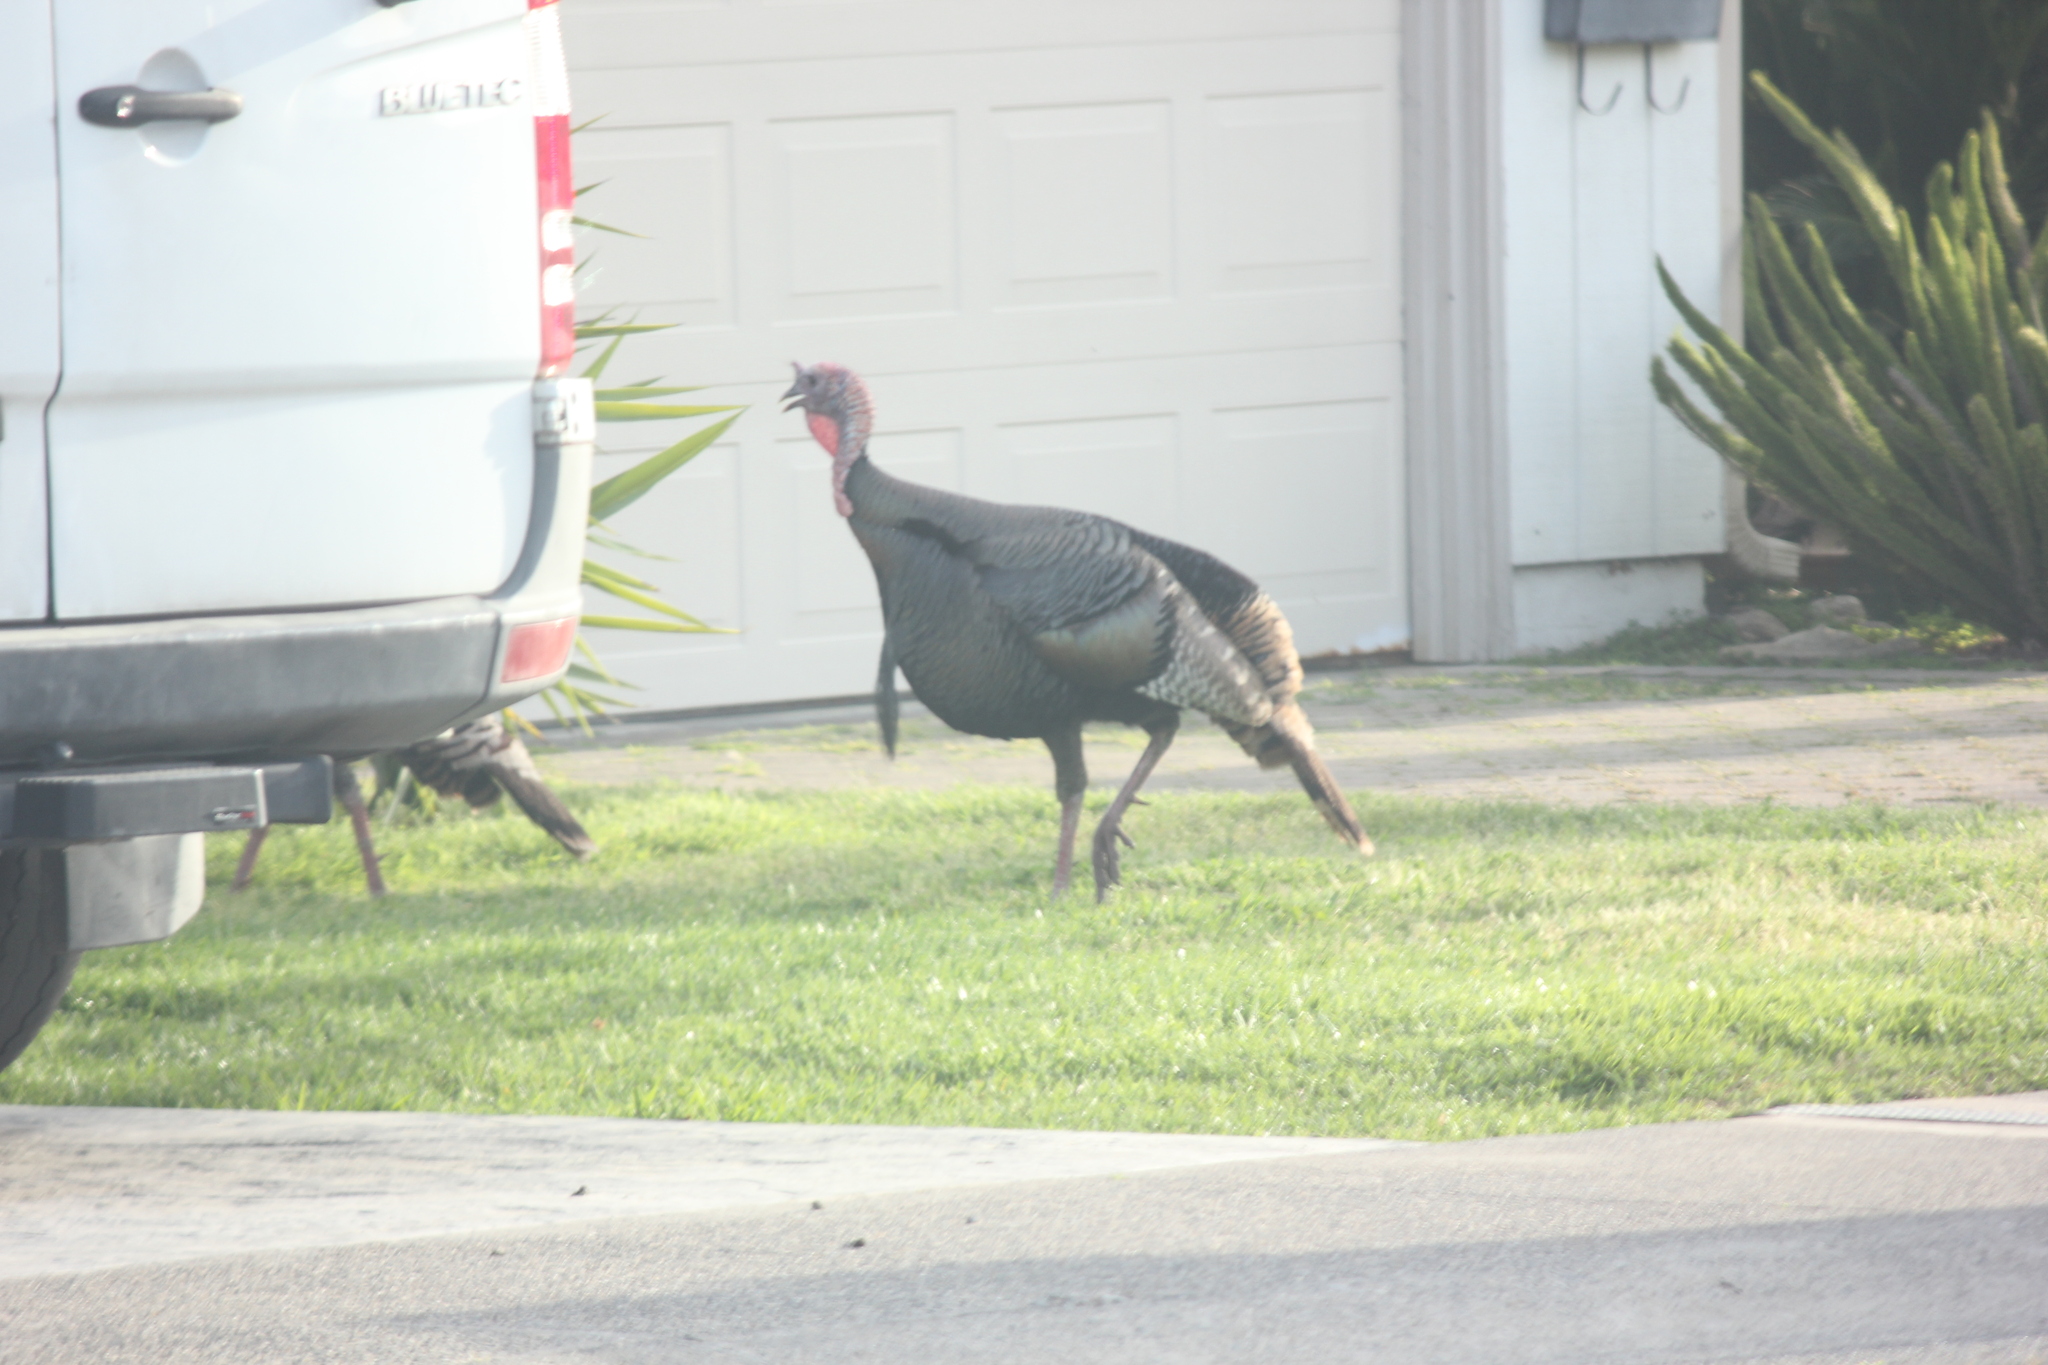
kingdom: Animalia
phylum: Chordata
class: Aves
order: Galliformes
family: Phasianidae
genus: Meleagris
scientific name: Meleagris gallopavo
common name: Wild turkey
